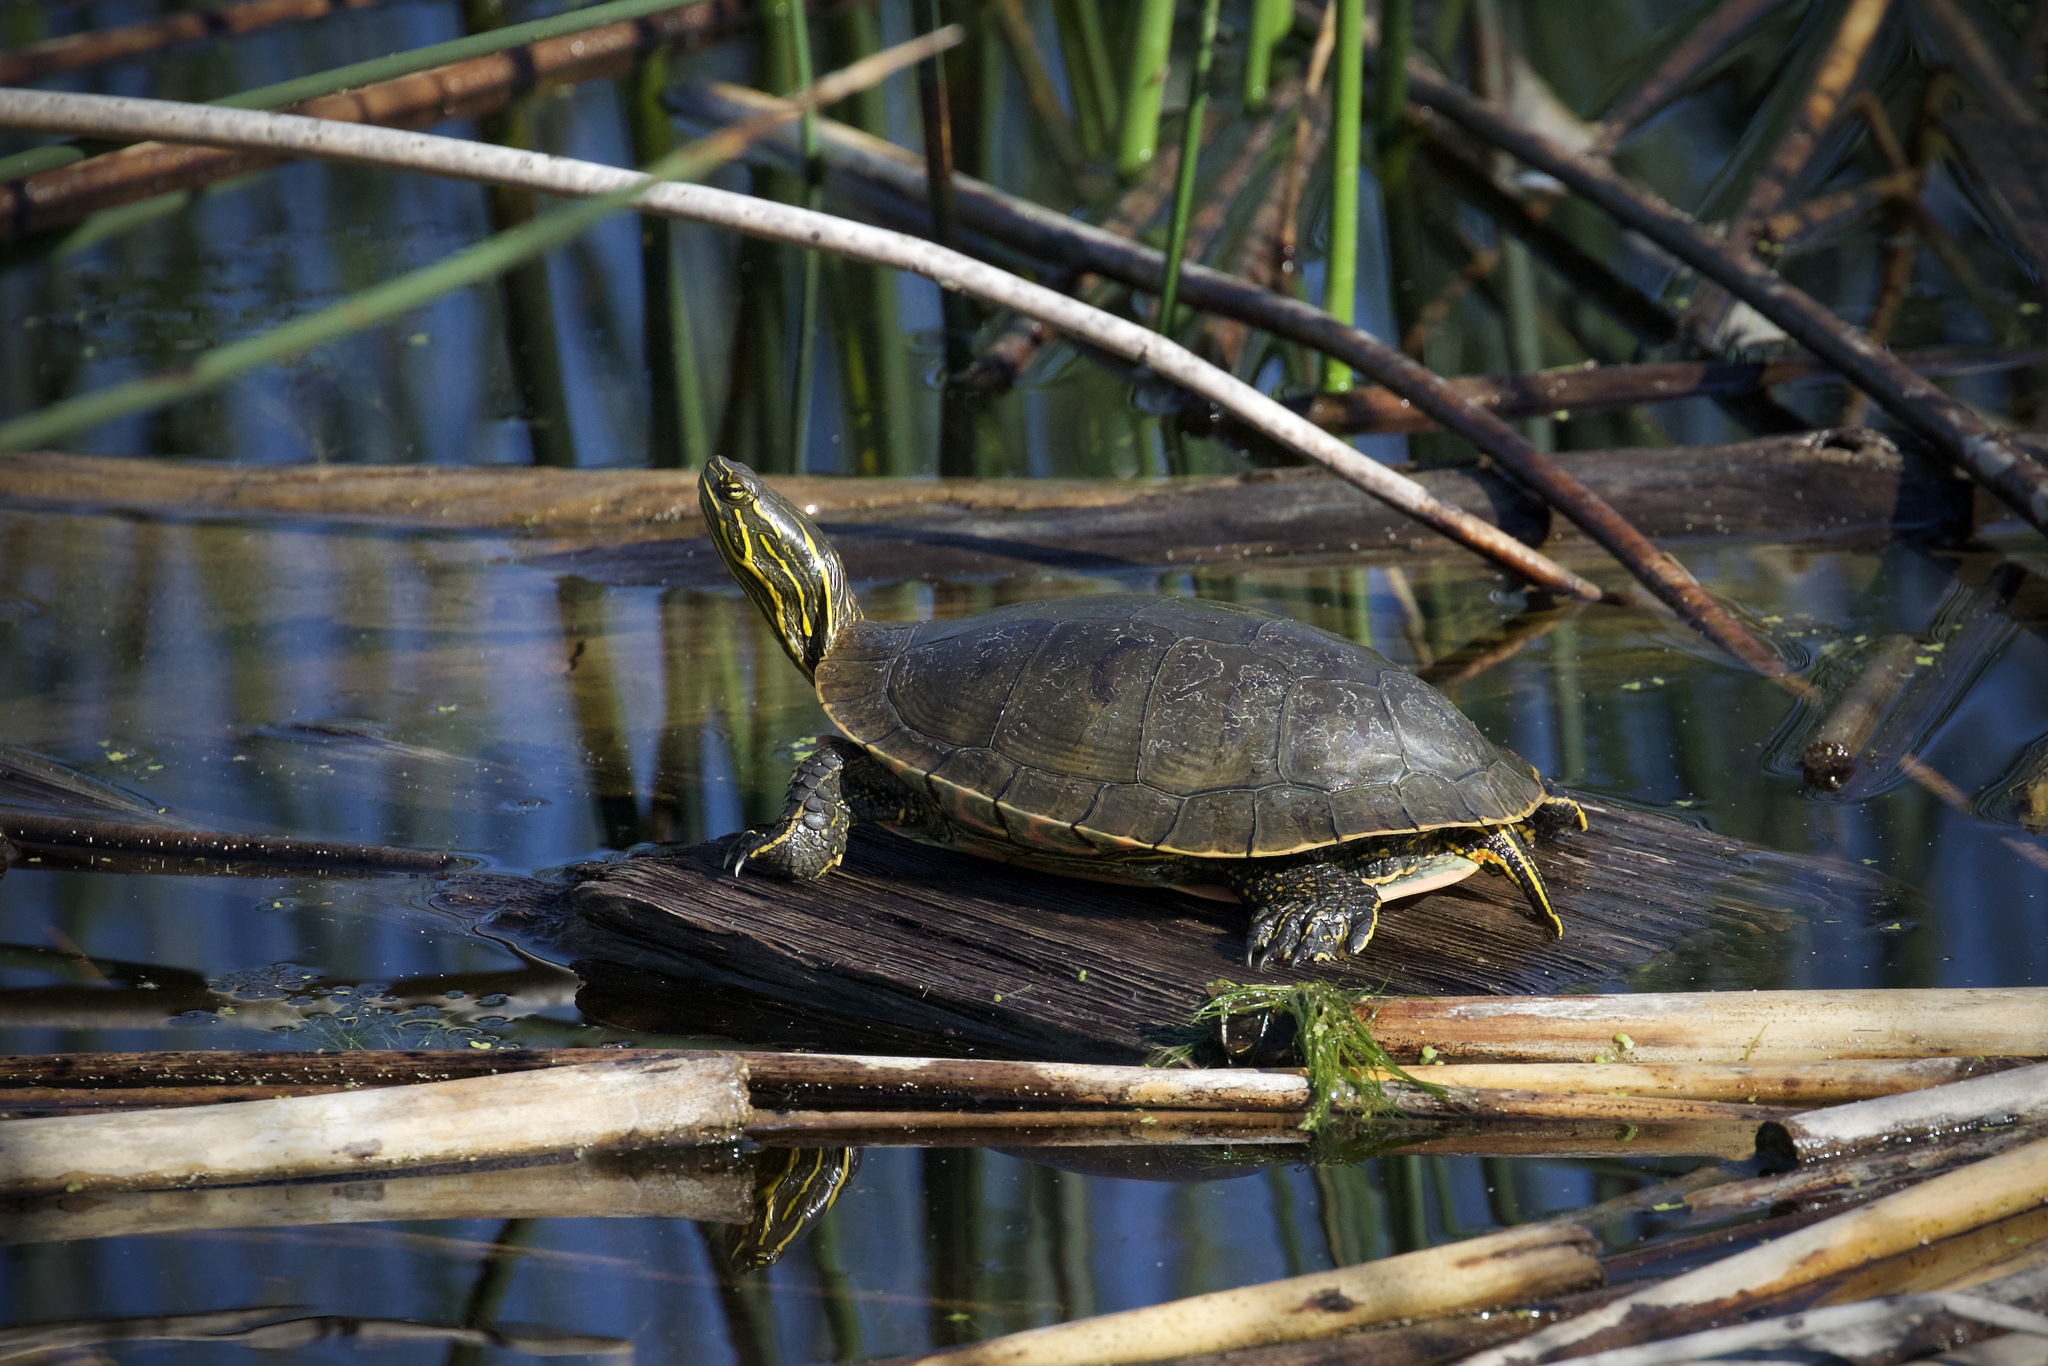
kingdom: Animalia
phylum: Chordata
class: Testudines
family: Emydidae
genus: Chrysemys
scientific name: Chrysemys picta
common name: Painted turtle
